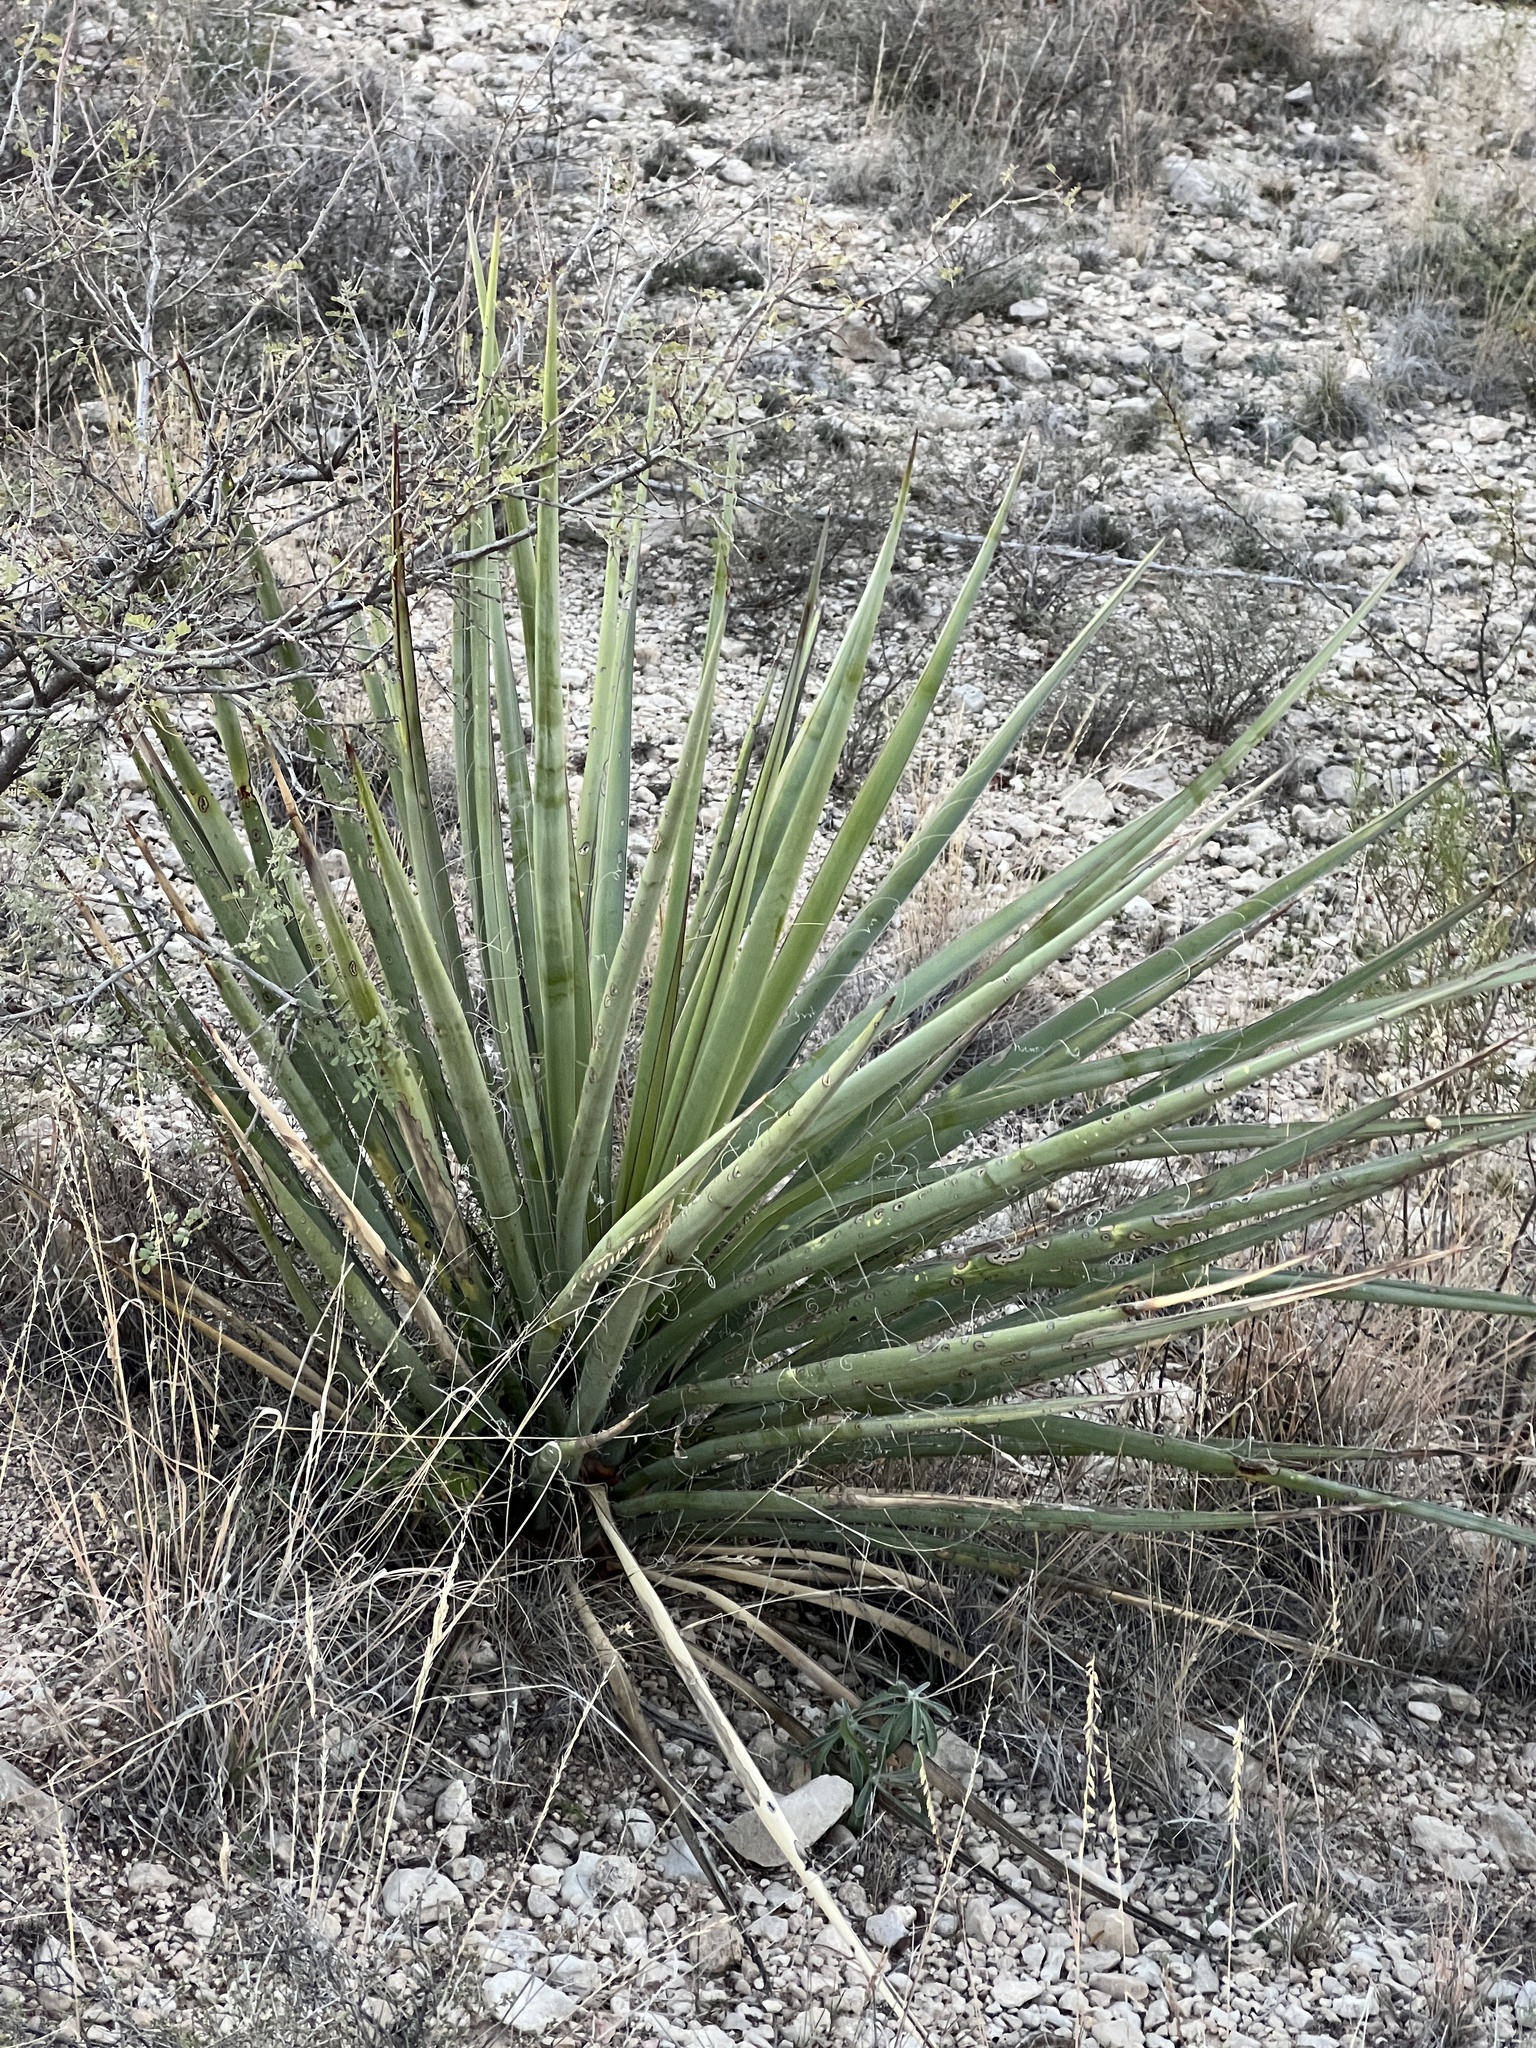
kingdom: Plantae
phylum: Tracheophyta
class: Liliopsida
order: Asparagales
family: Asparagaceae
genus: Yucca
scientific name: Yucca treculiana
